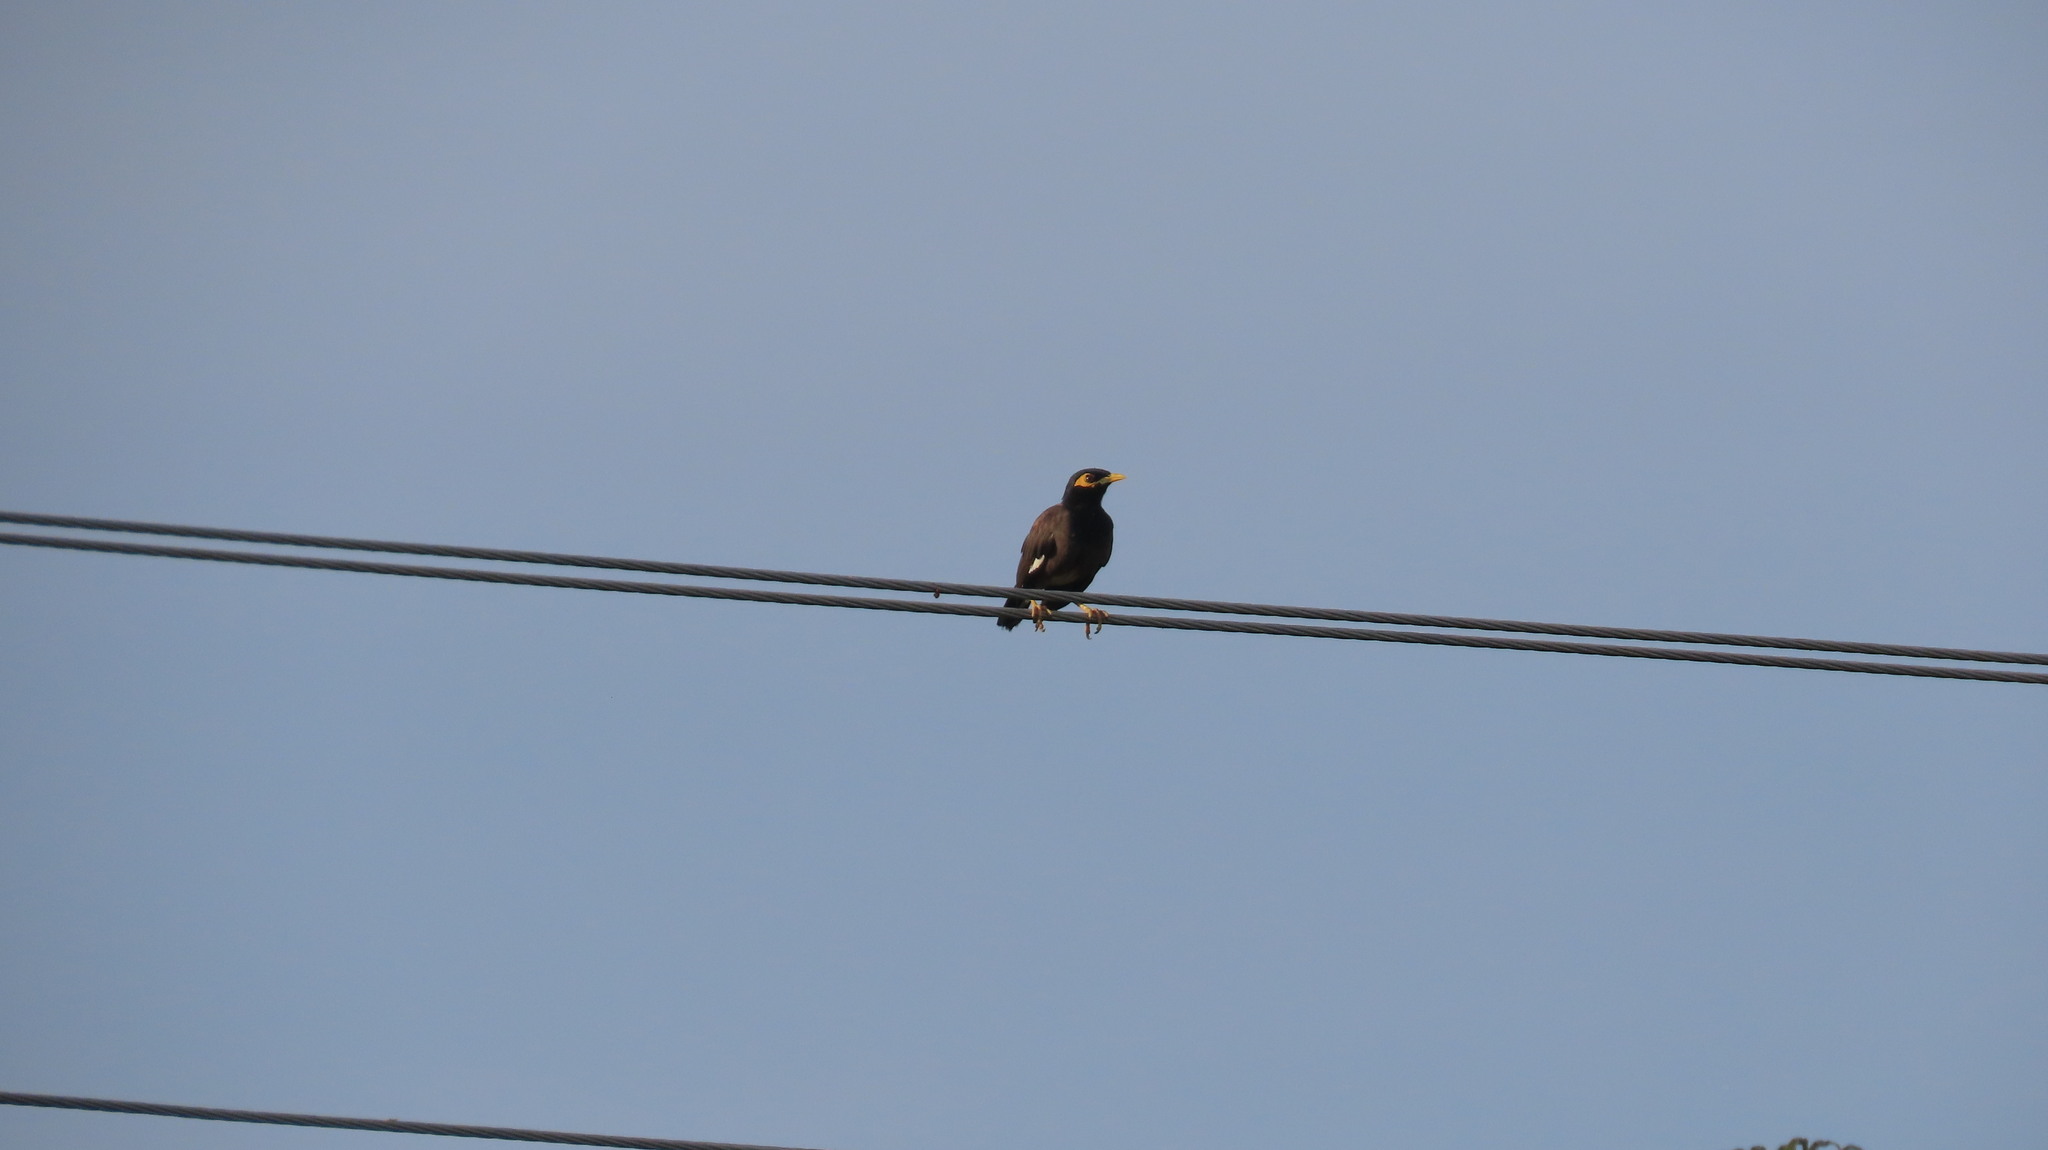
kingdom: Animalia
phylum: Chordata
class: Aves
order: Passeriformes
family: Sturnidae
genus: Acridotheres
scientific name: Acridotheres tristis
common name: Common myna
